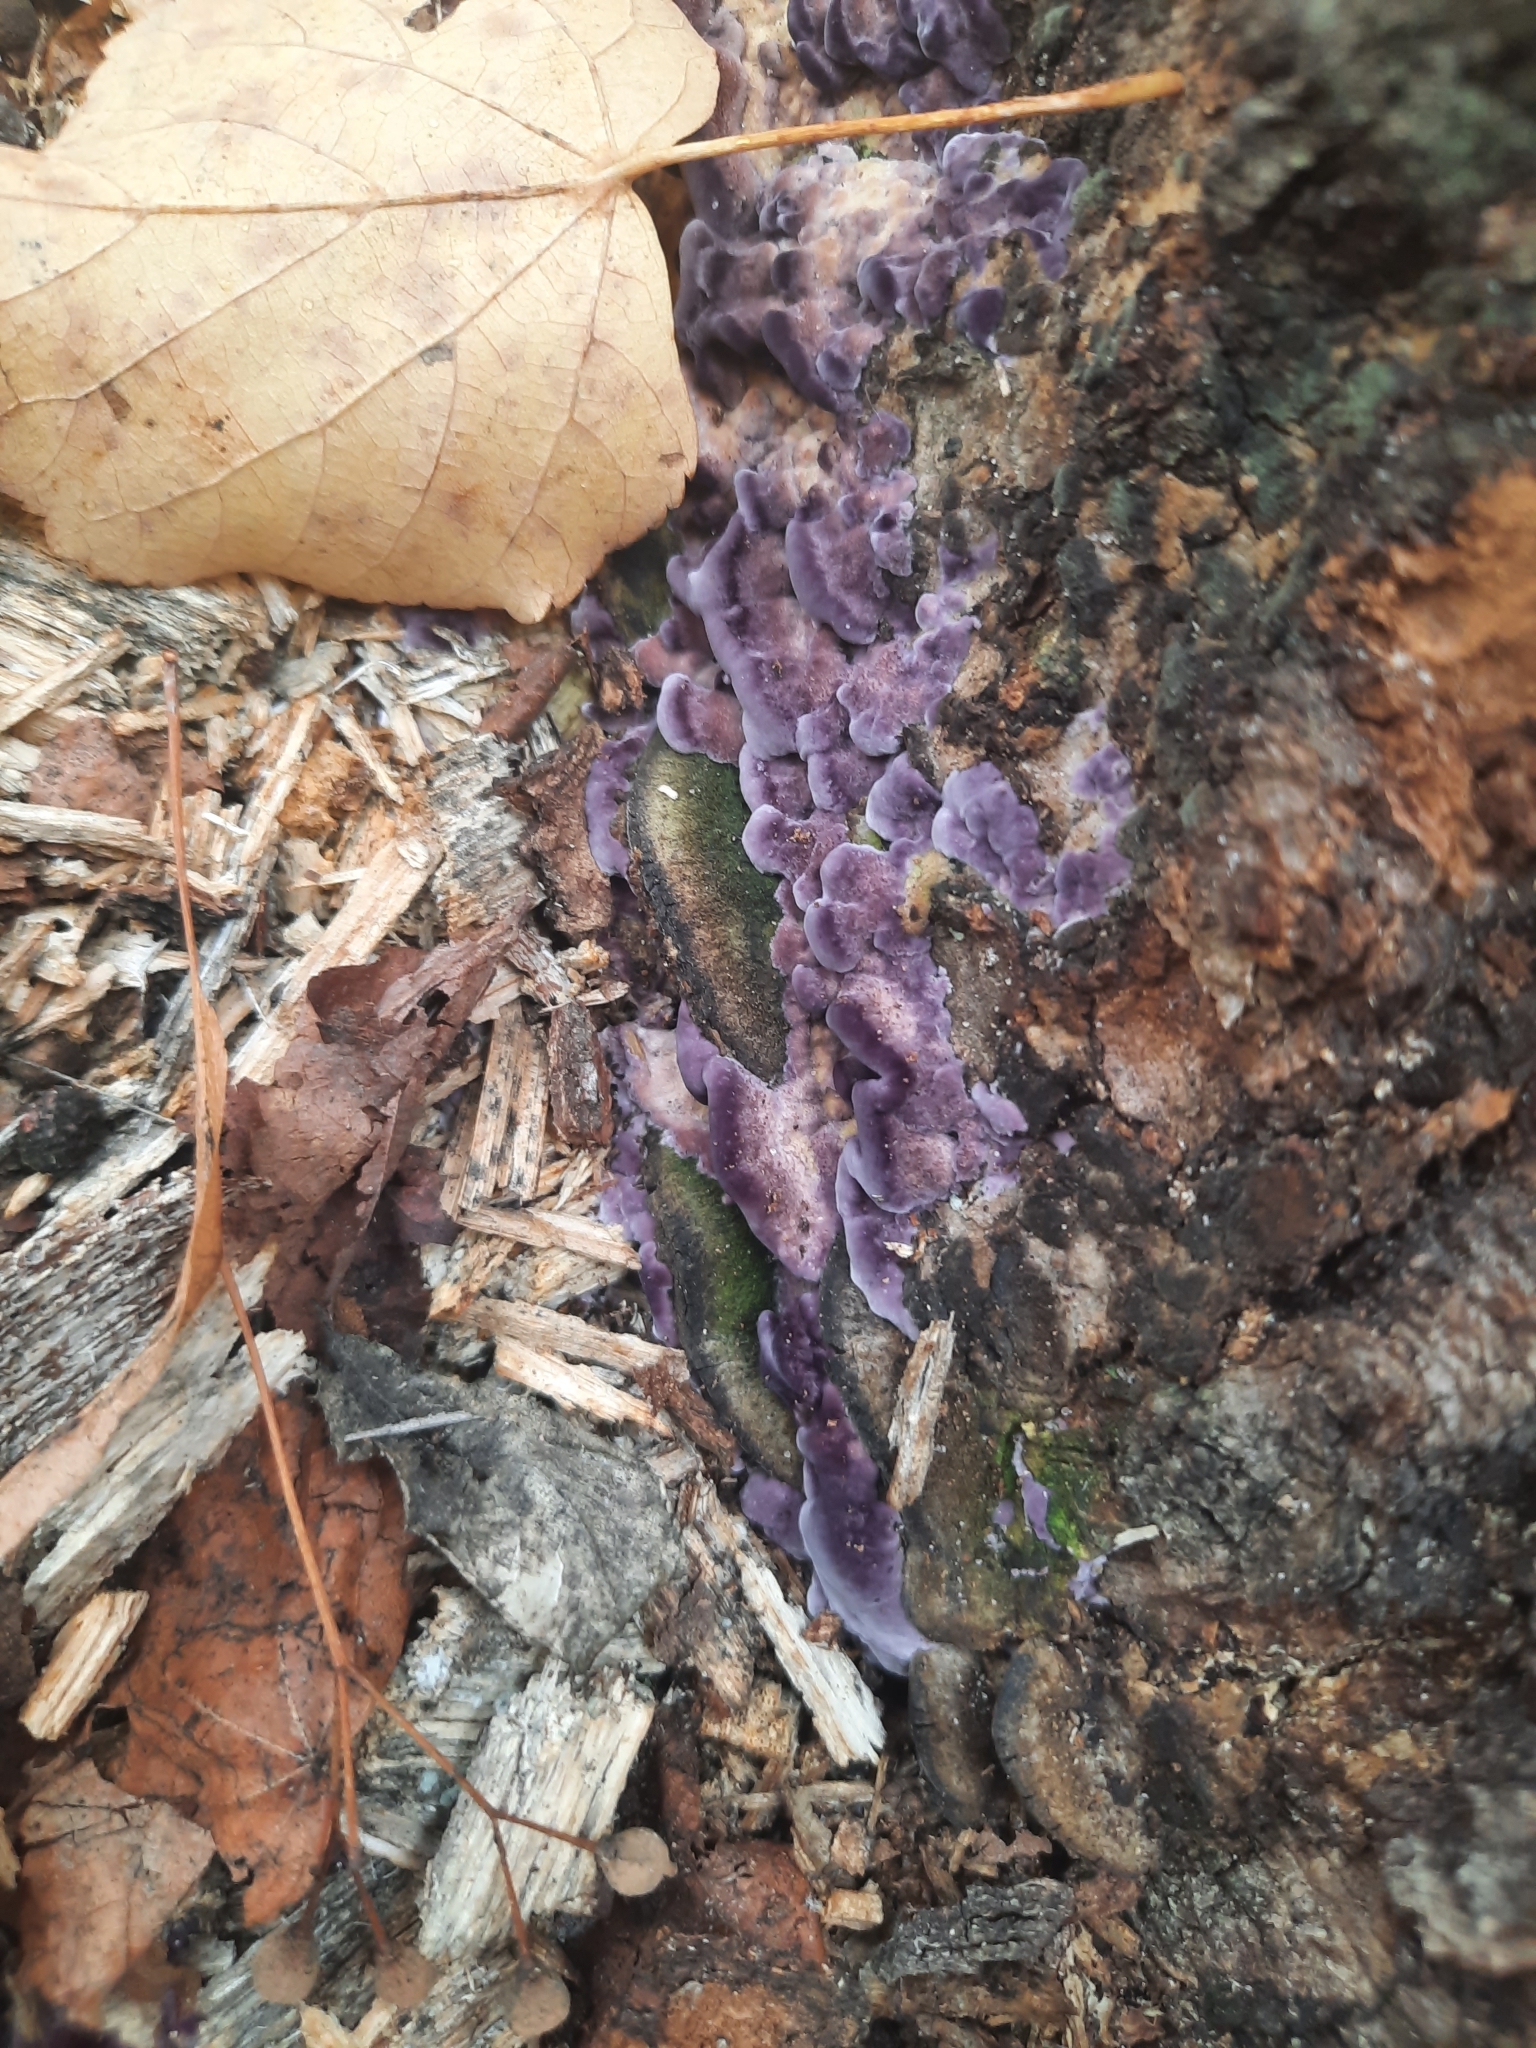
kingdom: Fungi
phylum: Basidiomycota
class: Agaricomycetes
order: Agaricales
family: Cyphellaceae
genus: Chondrostereum
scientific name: Chondrostereum purpureum
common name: Silver leaf disease
